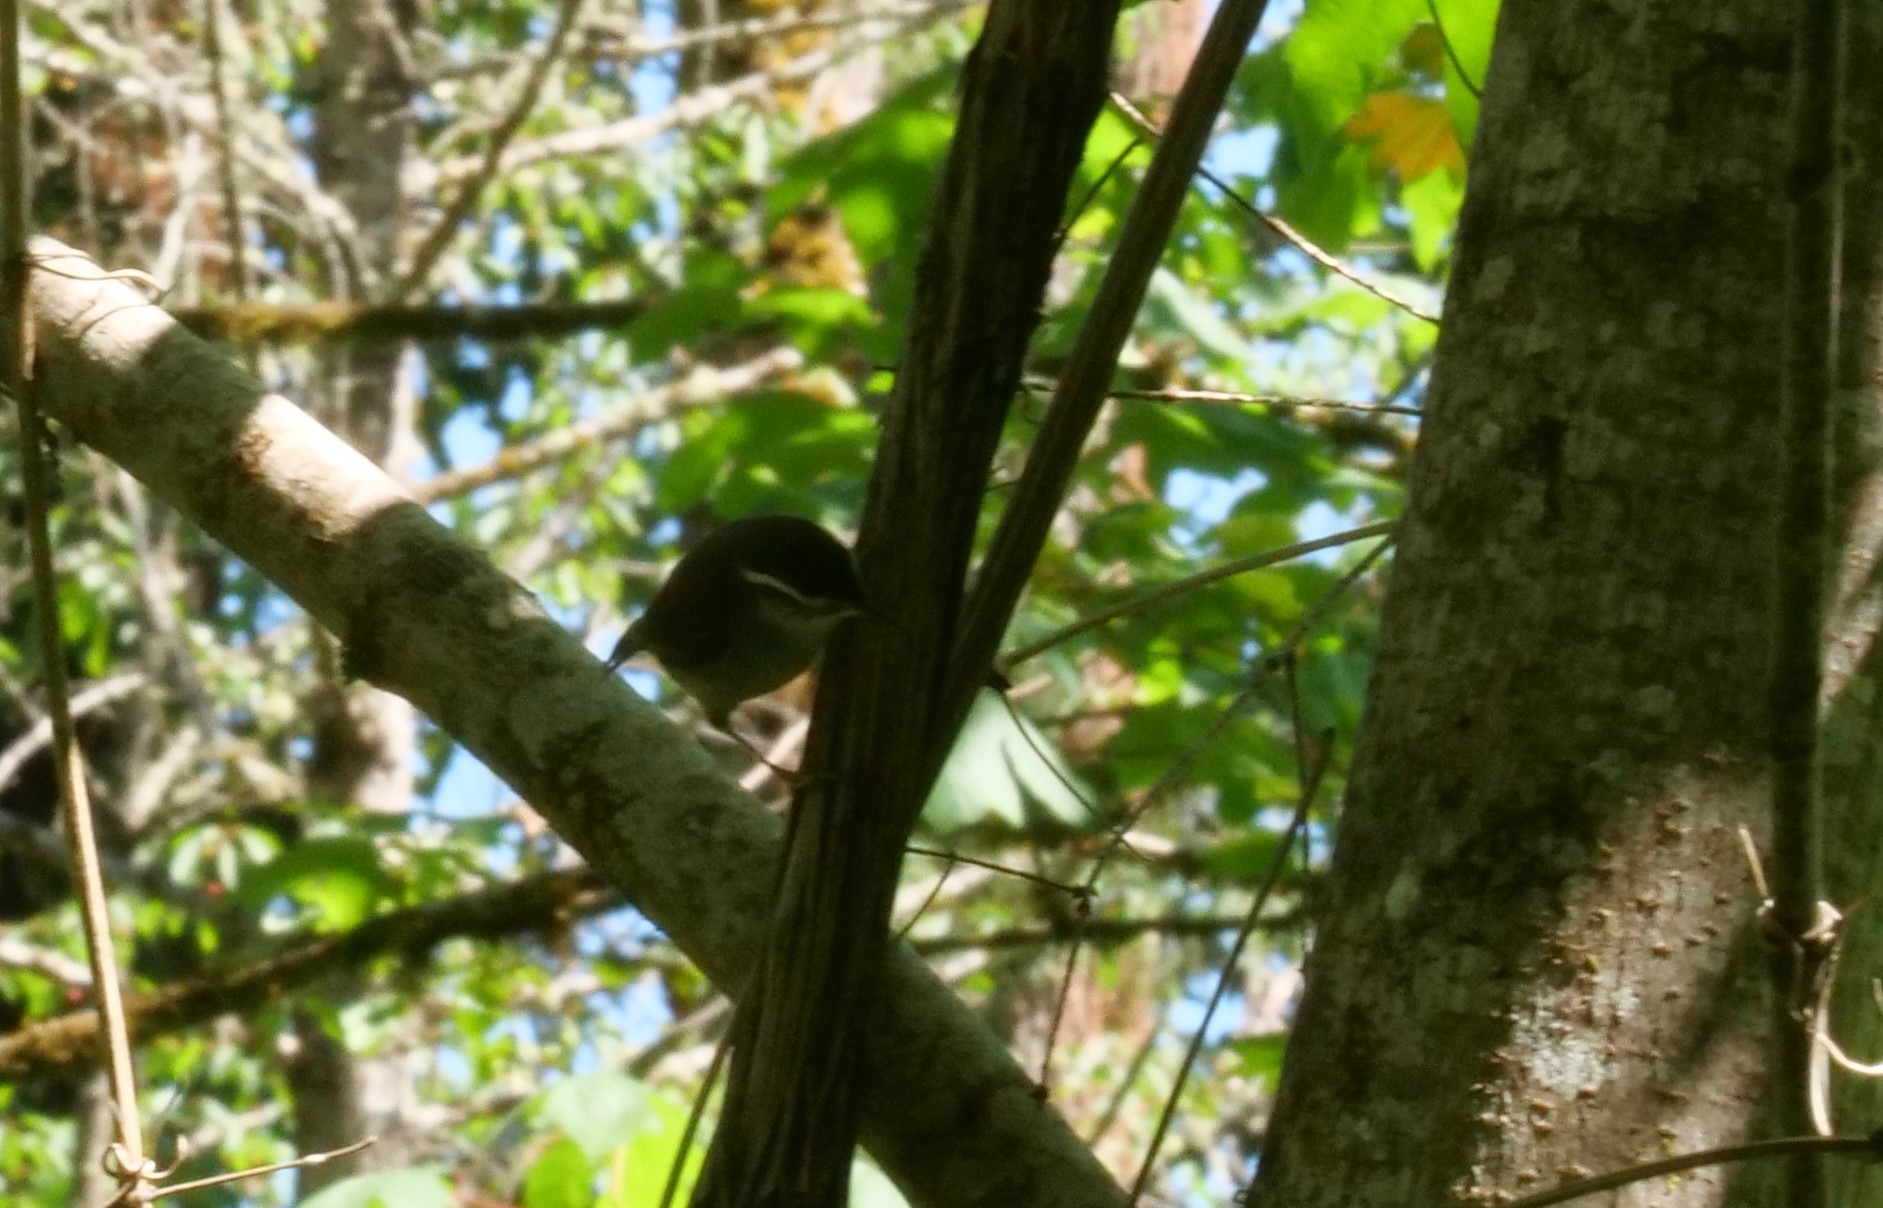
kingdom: Animalia
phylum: Chordata
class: Aves
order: Passeriformes
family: Troglodytidae
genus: Thryomanes
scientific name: Thryomanes bewickii
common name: Bewick's wren
